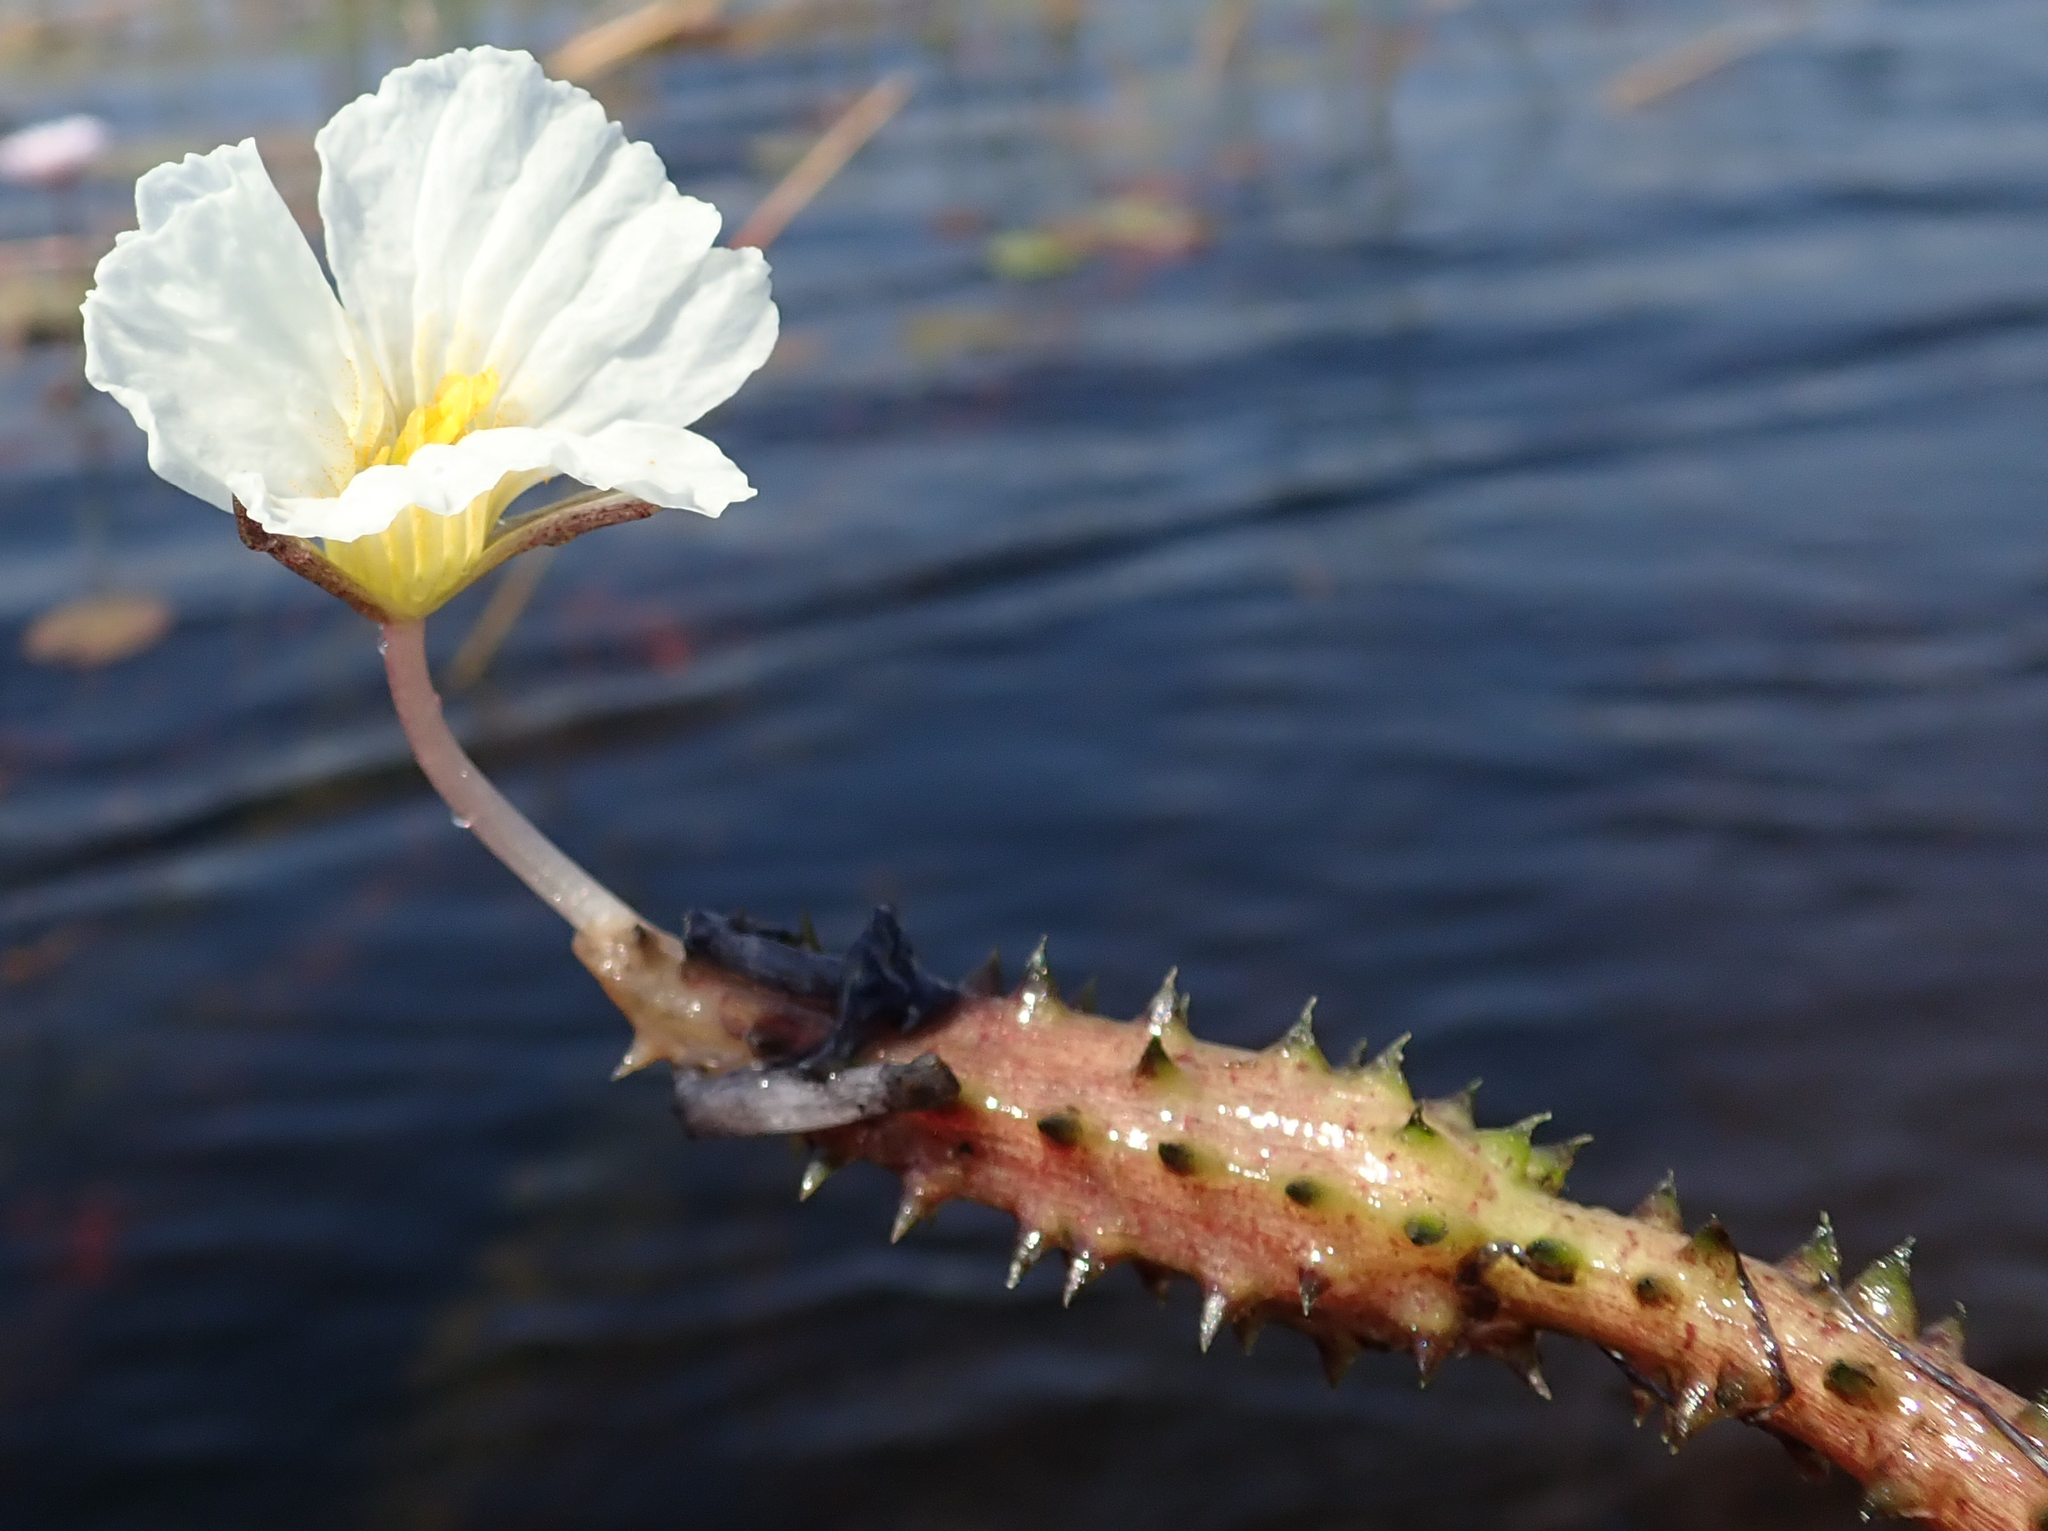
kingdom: Plantae
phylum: Tracheophyta
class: Liliopsida
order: Alismatales
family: Hydrocharitaceae
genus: Ottelia
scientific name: Ottelia muricata
